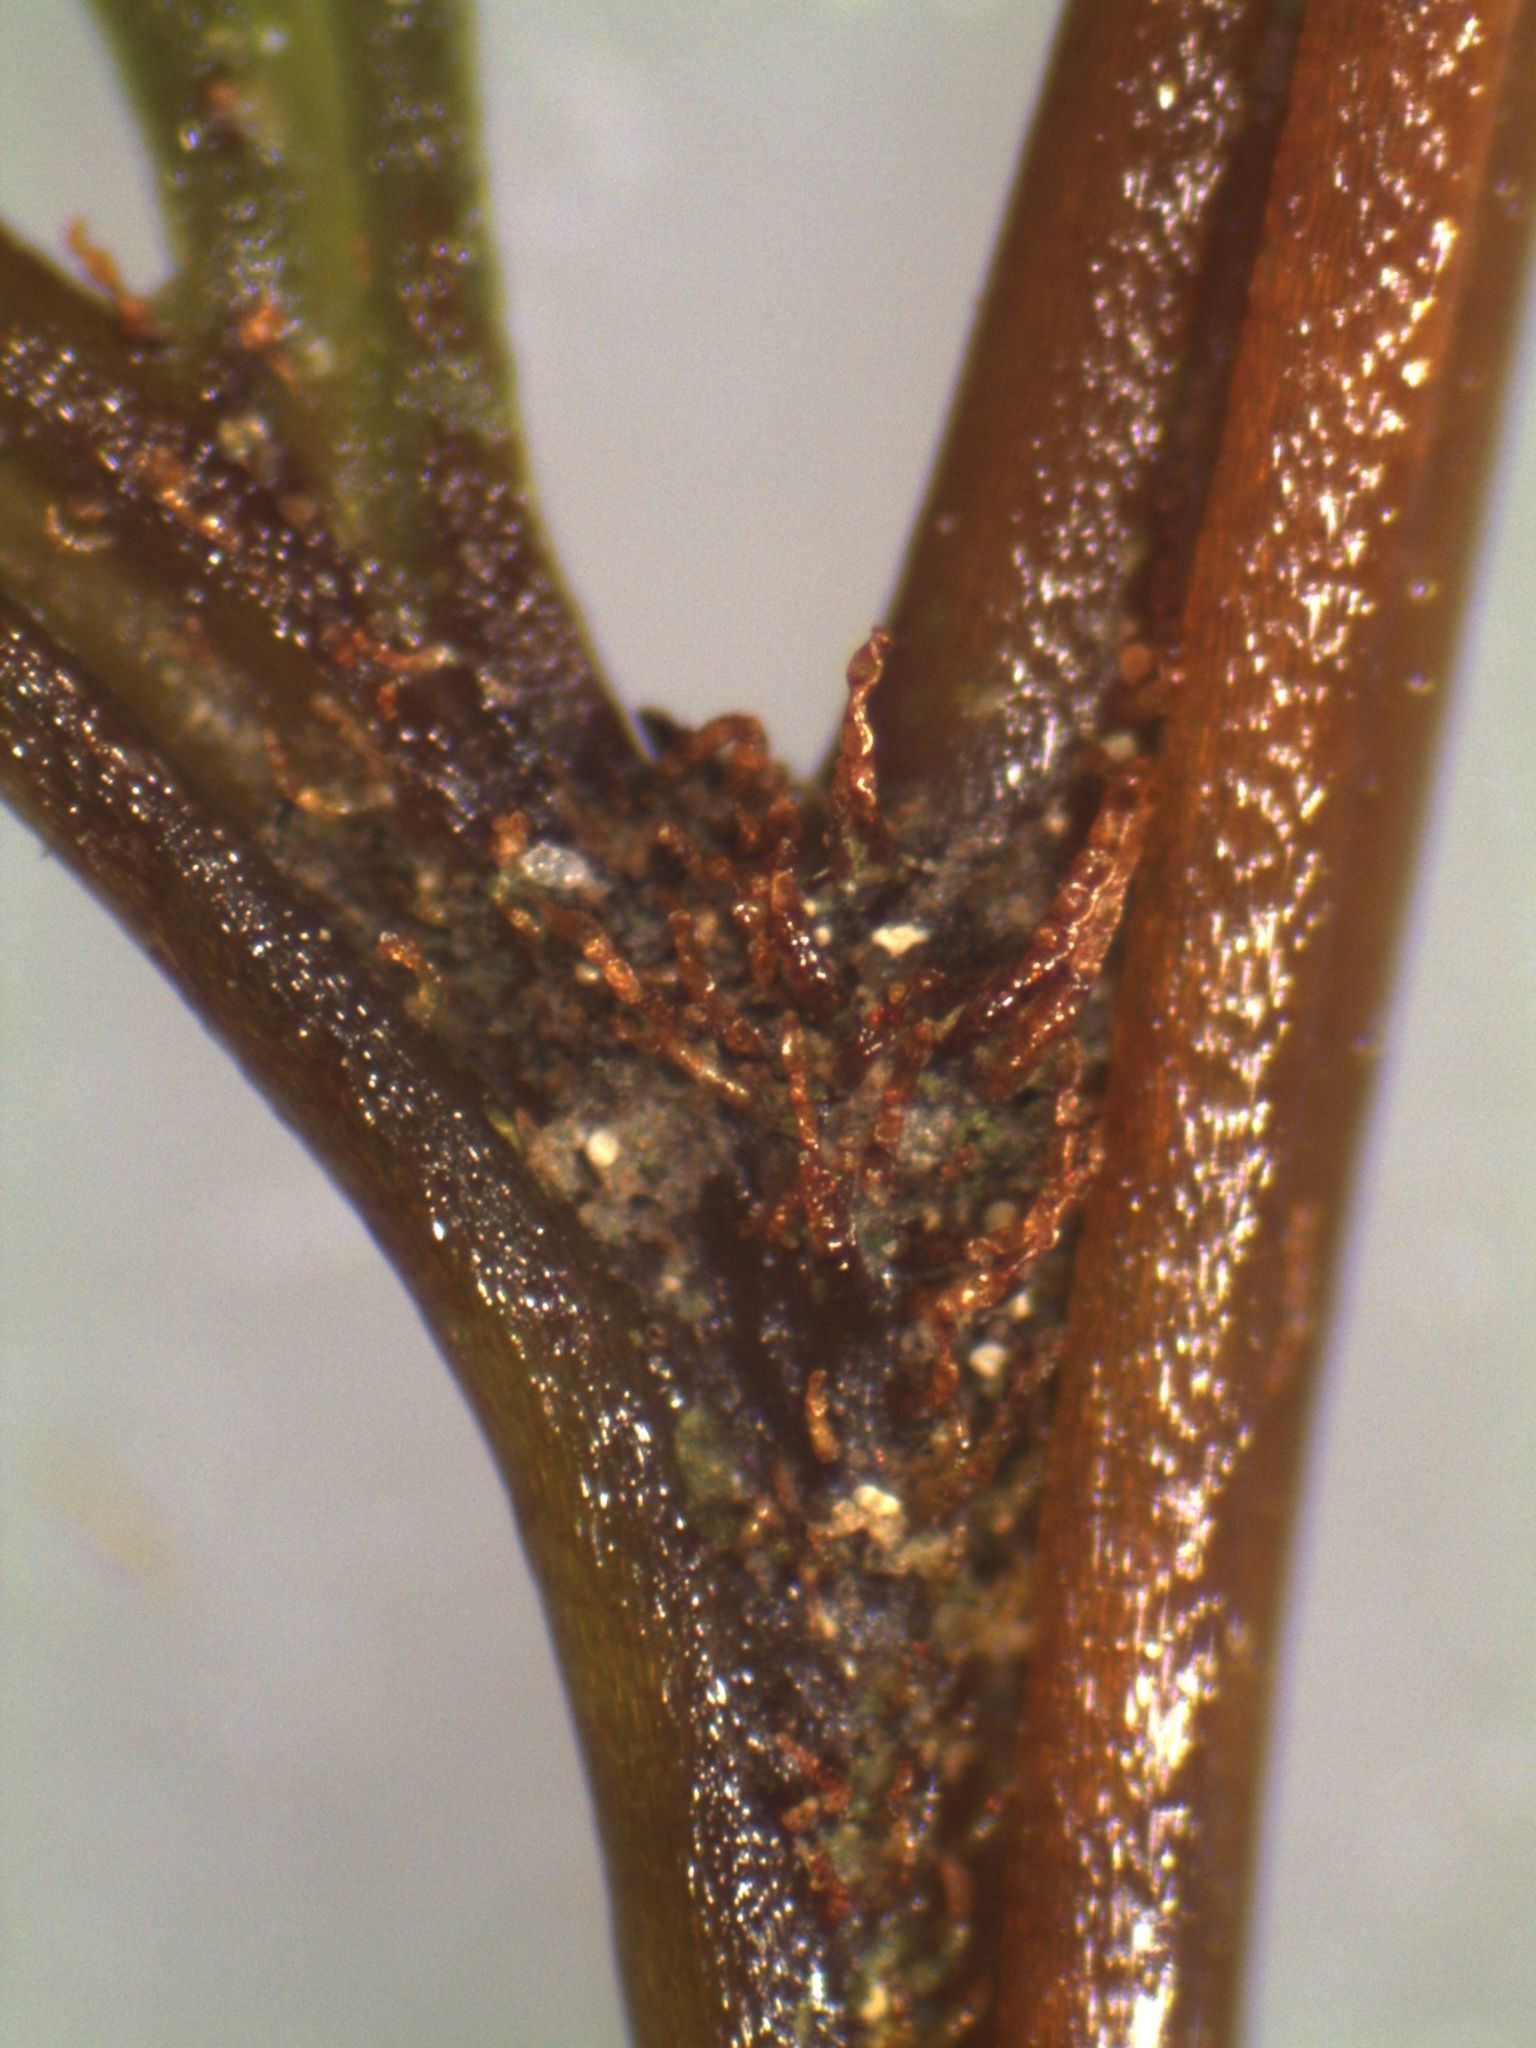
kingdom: Plantae
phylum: Tracheophyta
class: Polypodiopsida
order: Polypodiales
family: Dennstaedtiaceae
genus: Dennstaedtia
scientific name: Dennstaedtia novae-zelandiae
